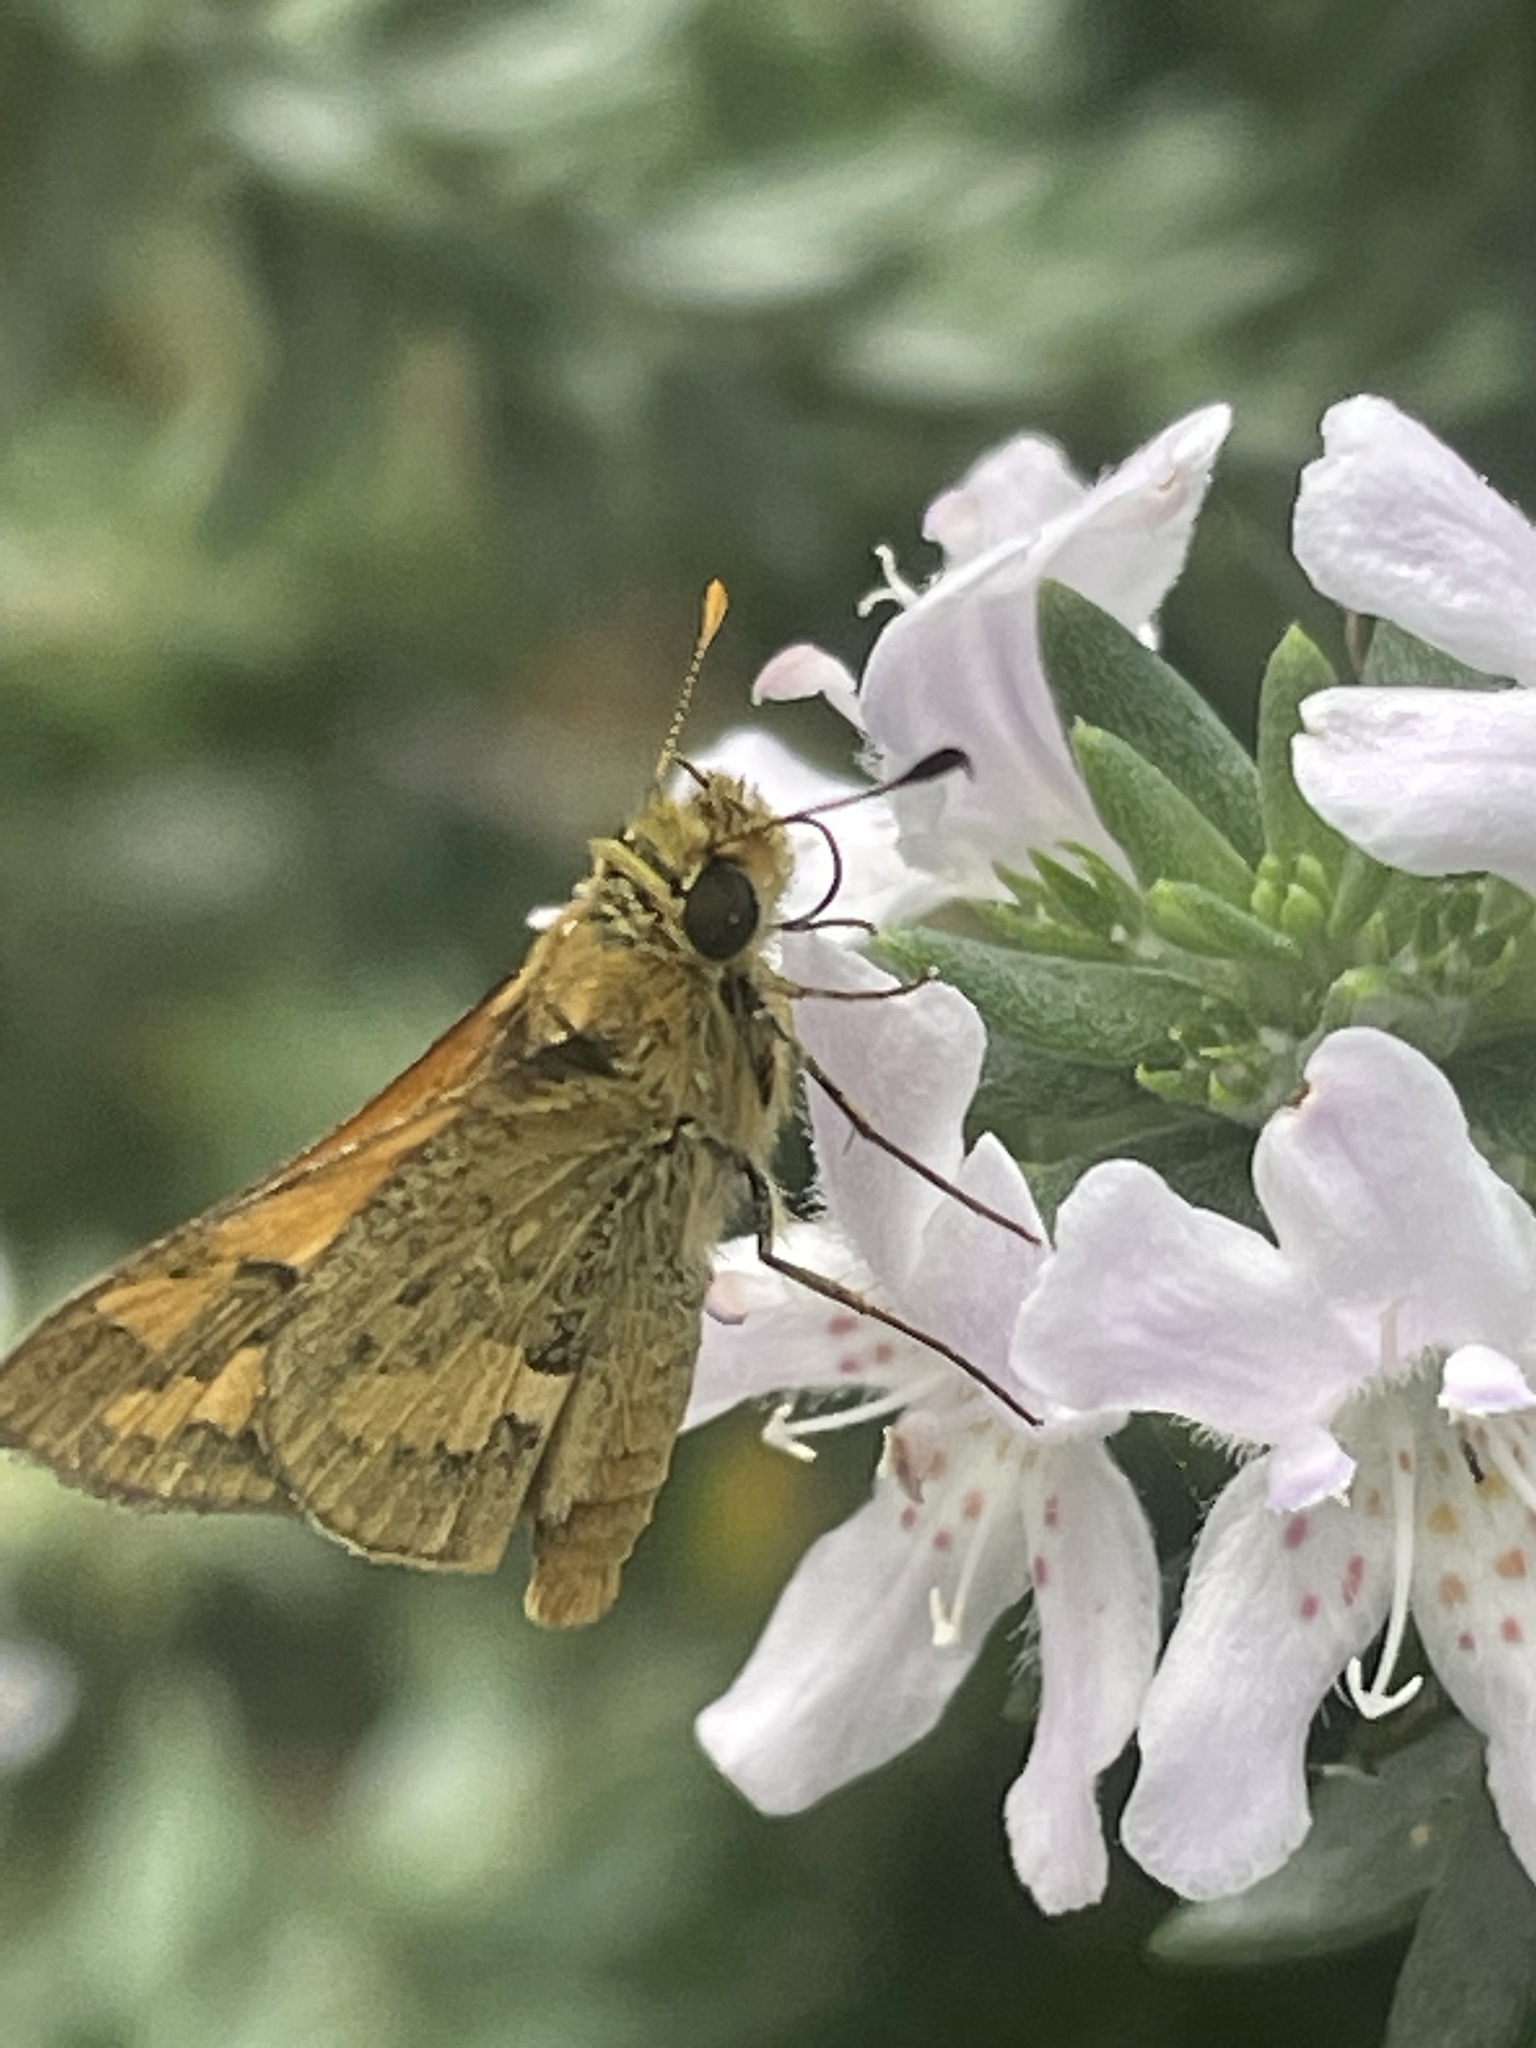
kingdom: Animalia
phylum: Arthropoda
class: Insecta
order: Lepidoptera
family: Hesperiidae
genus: Ocybadistes
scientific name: Ocybadistes walkeri
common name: Yellow-banded dart
